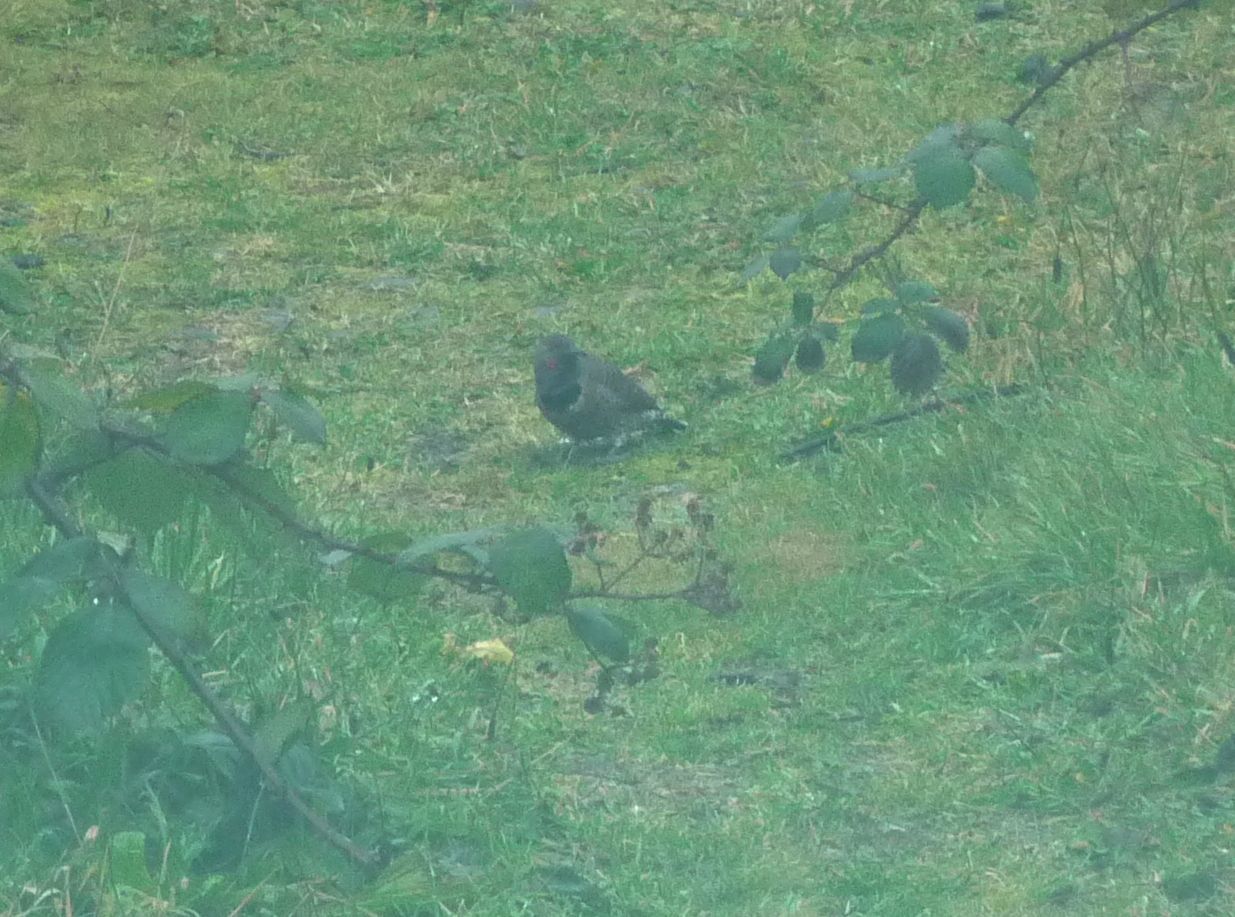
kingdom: Animalia
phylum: Chordata
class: Aves
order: Piciformes
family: Picidae
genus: Colaptes
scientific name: Colaptes auratus
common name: Northern flicker
